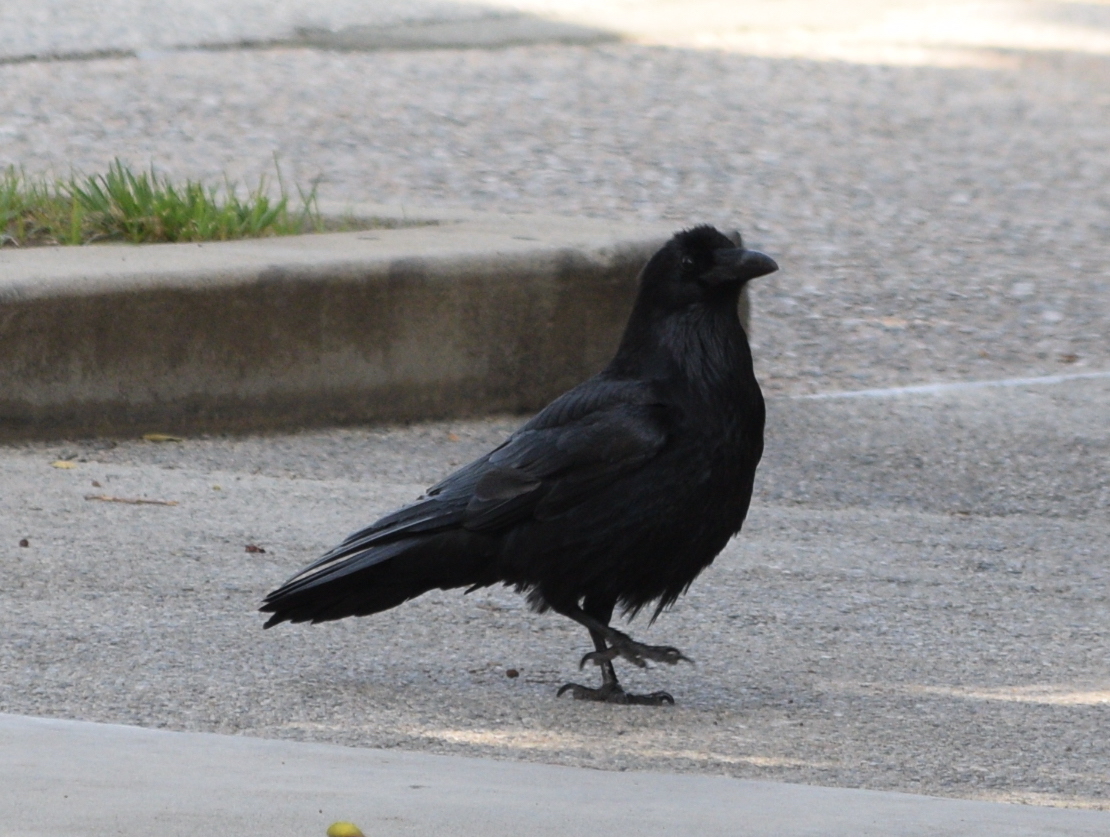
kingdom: Animalia
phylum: Chordata
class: Aves
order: Passeriformes
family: Corvidae
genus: Corvus
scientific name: Corvus corax
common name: Common raven
